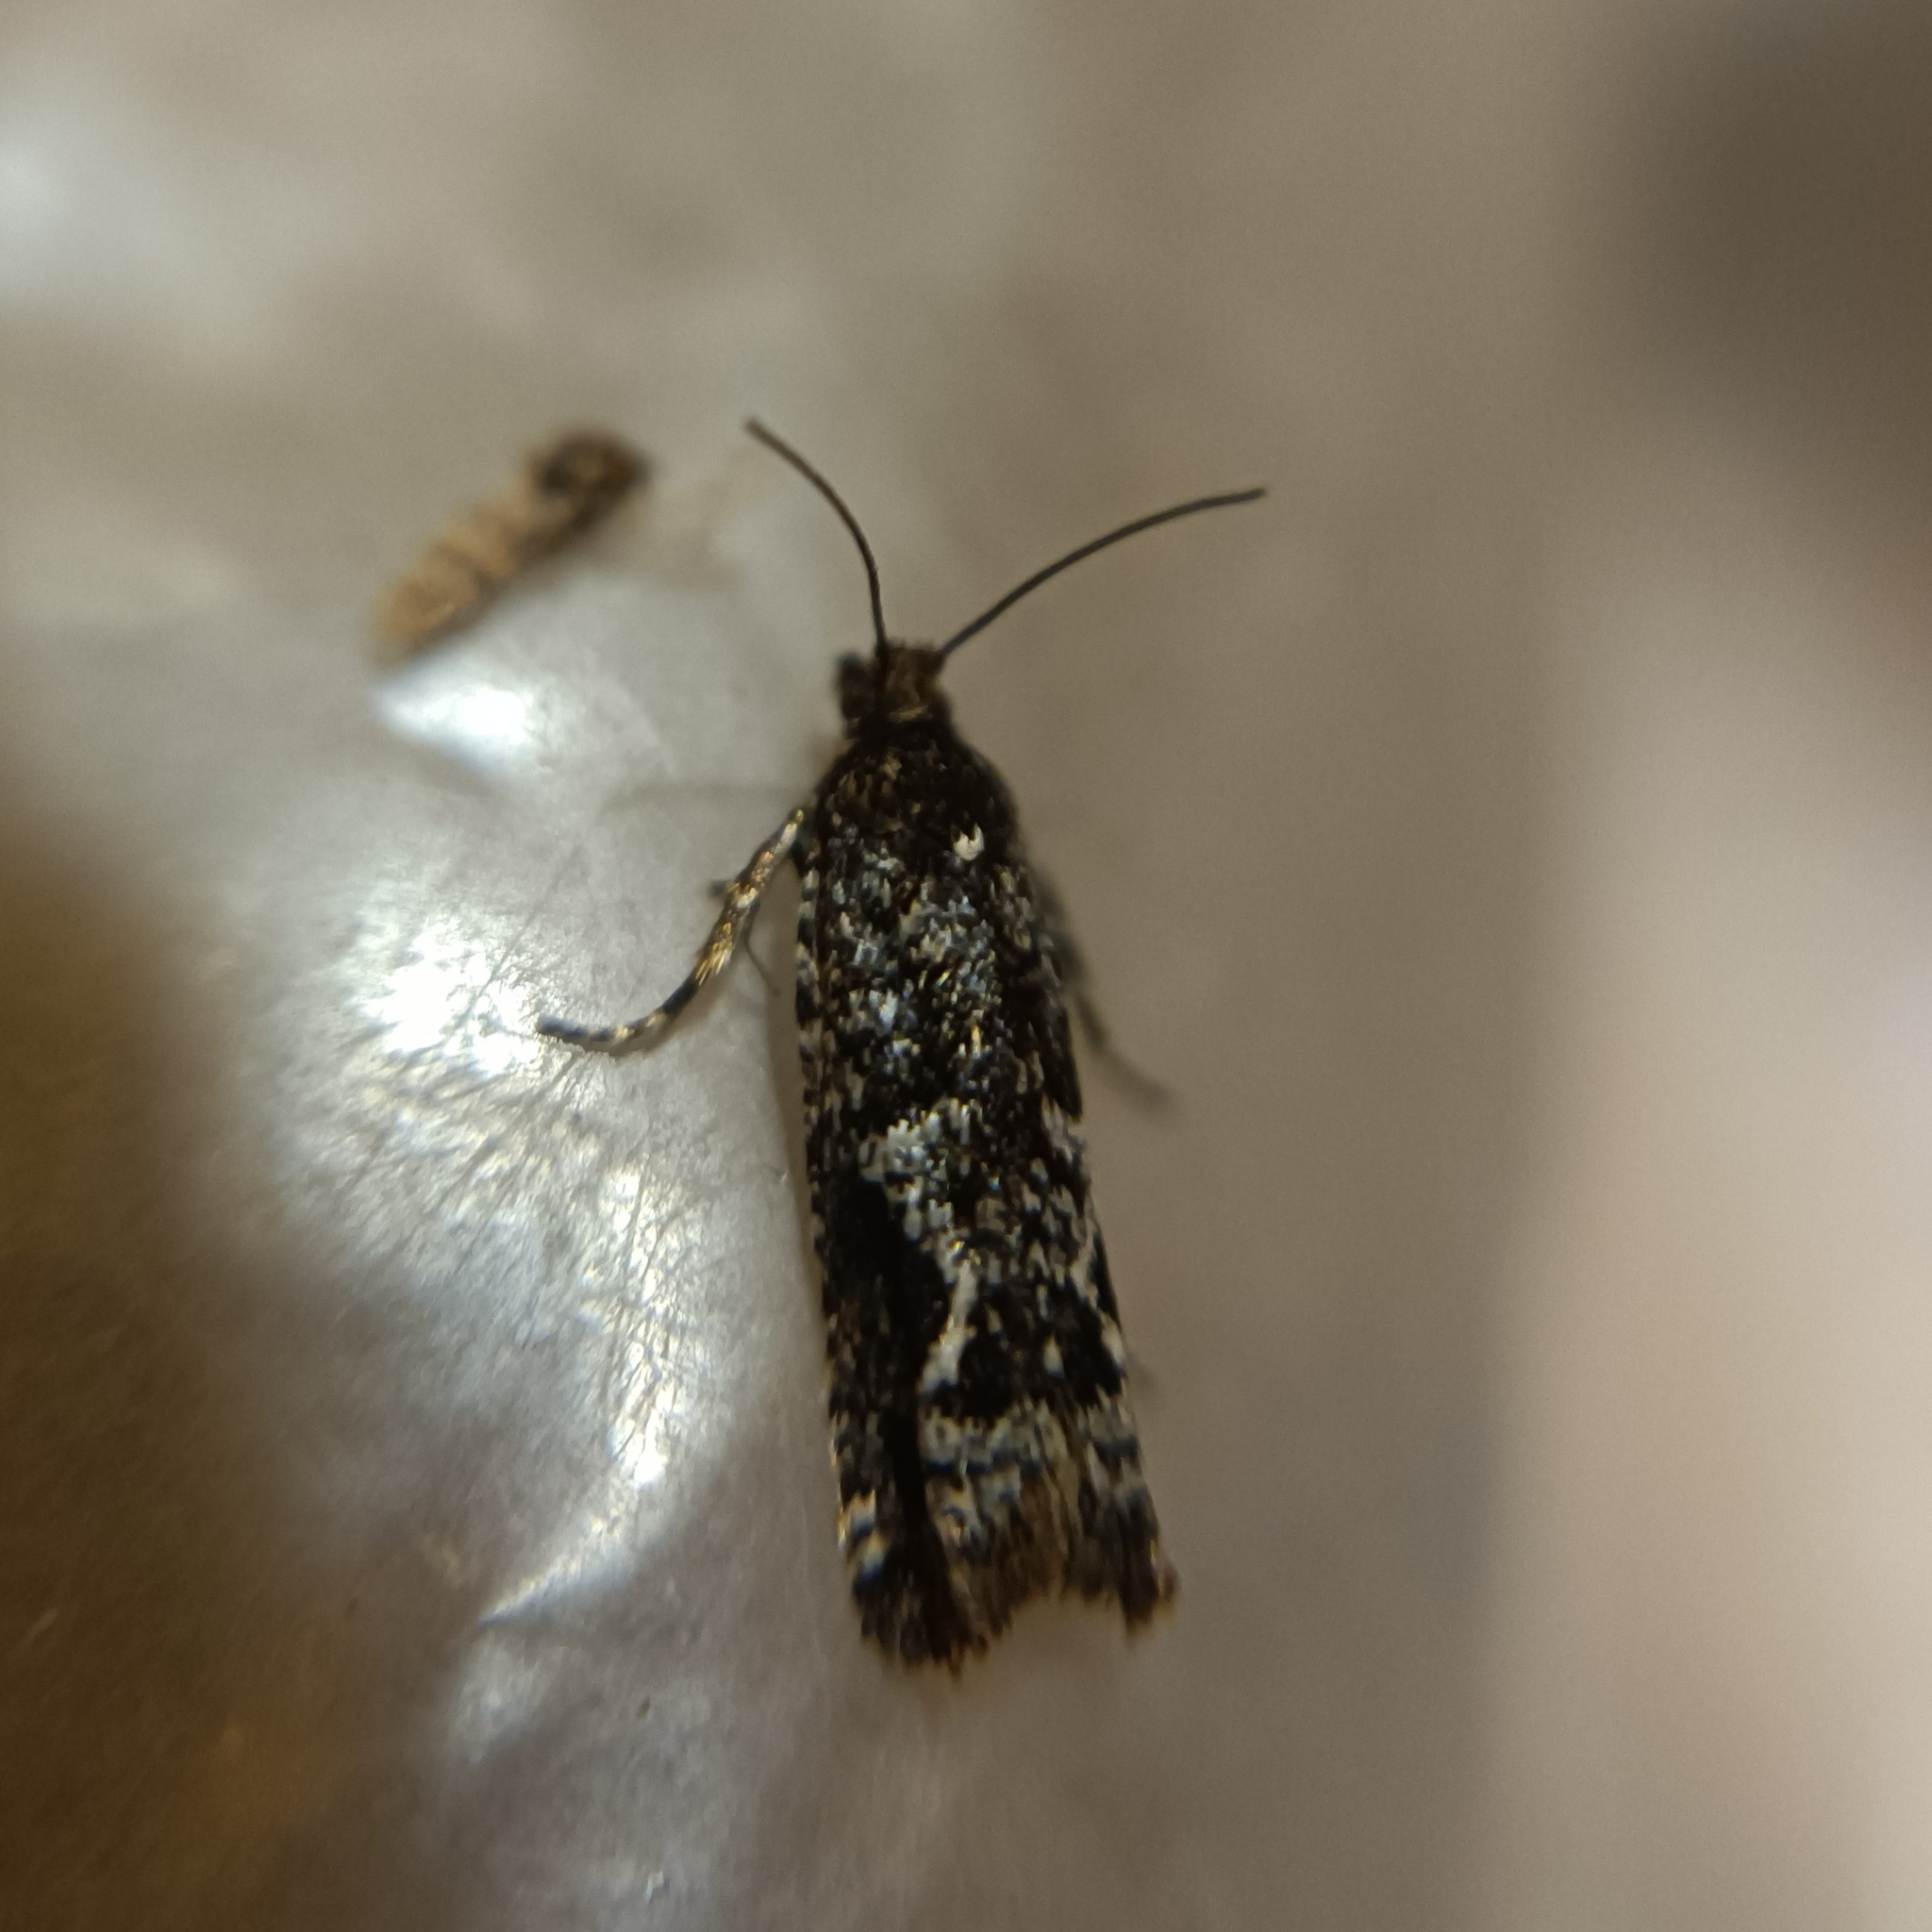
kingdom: Animalia
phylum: Arthropoda
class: Insecta
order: Lepidoptera
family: Tortricidae
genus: Epinotia
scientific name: Epinotia crenana
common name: Highland bell
